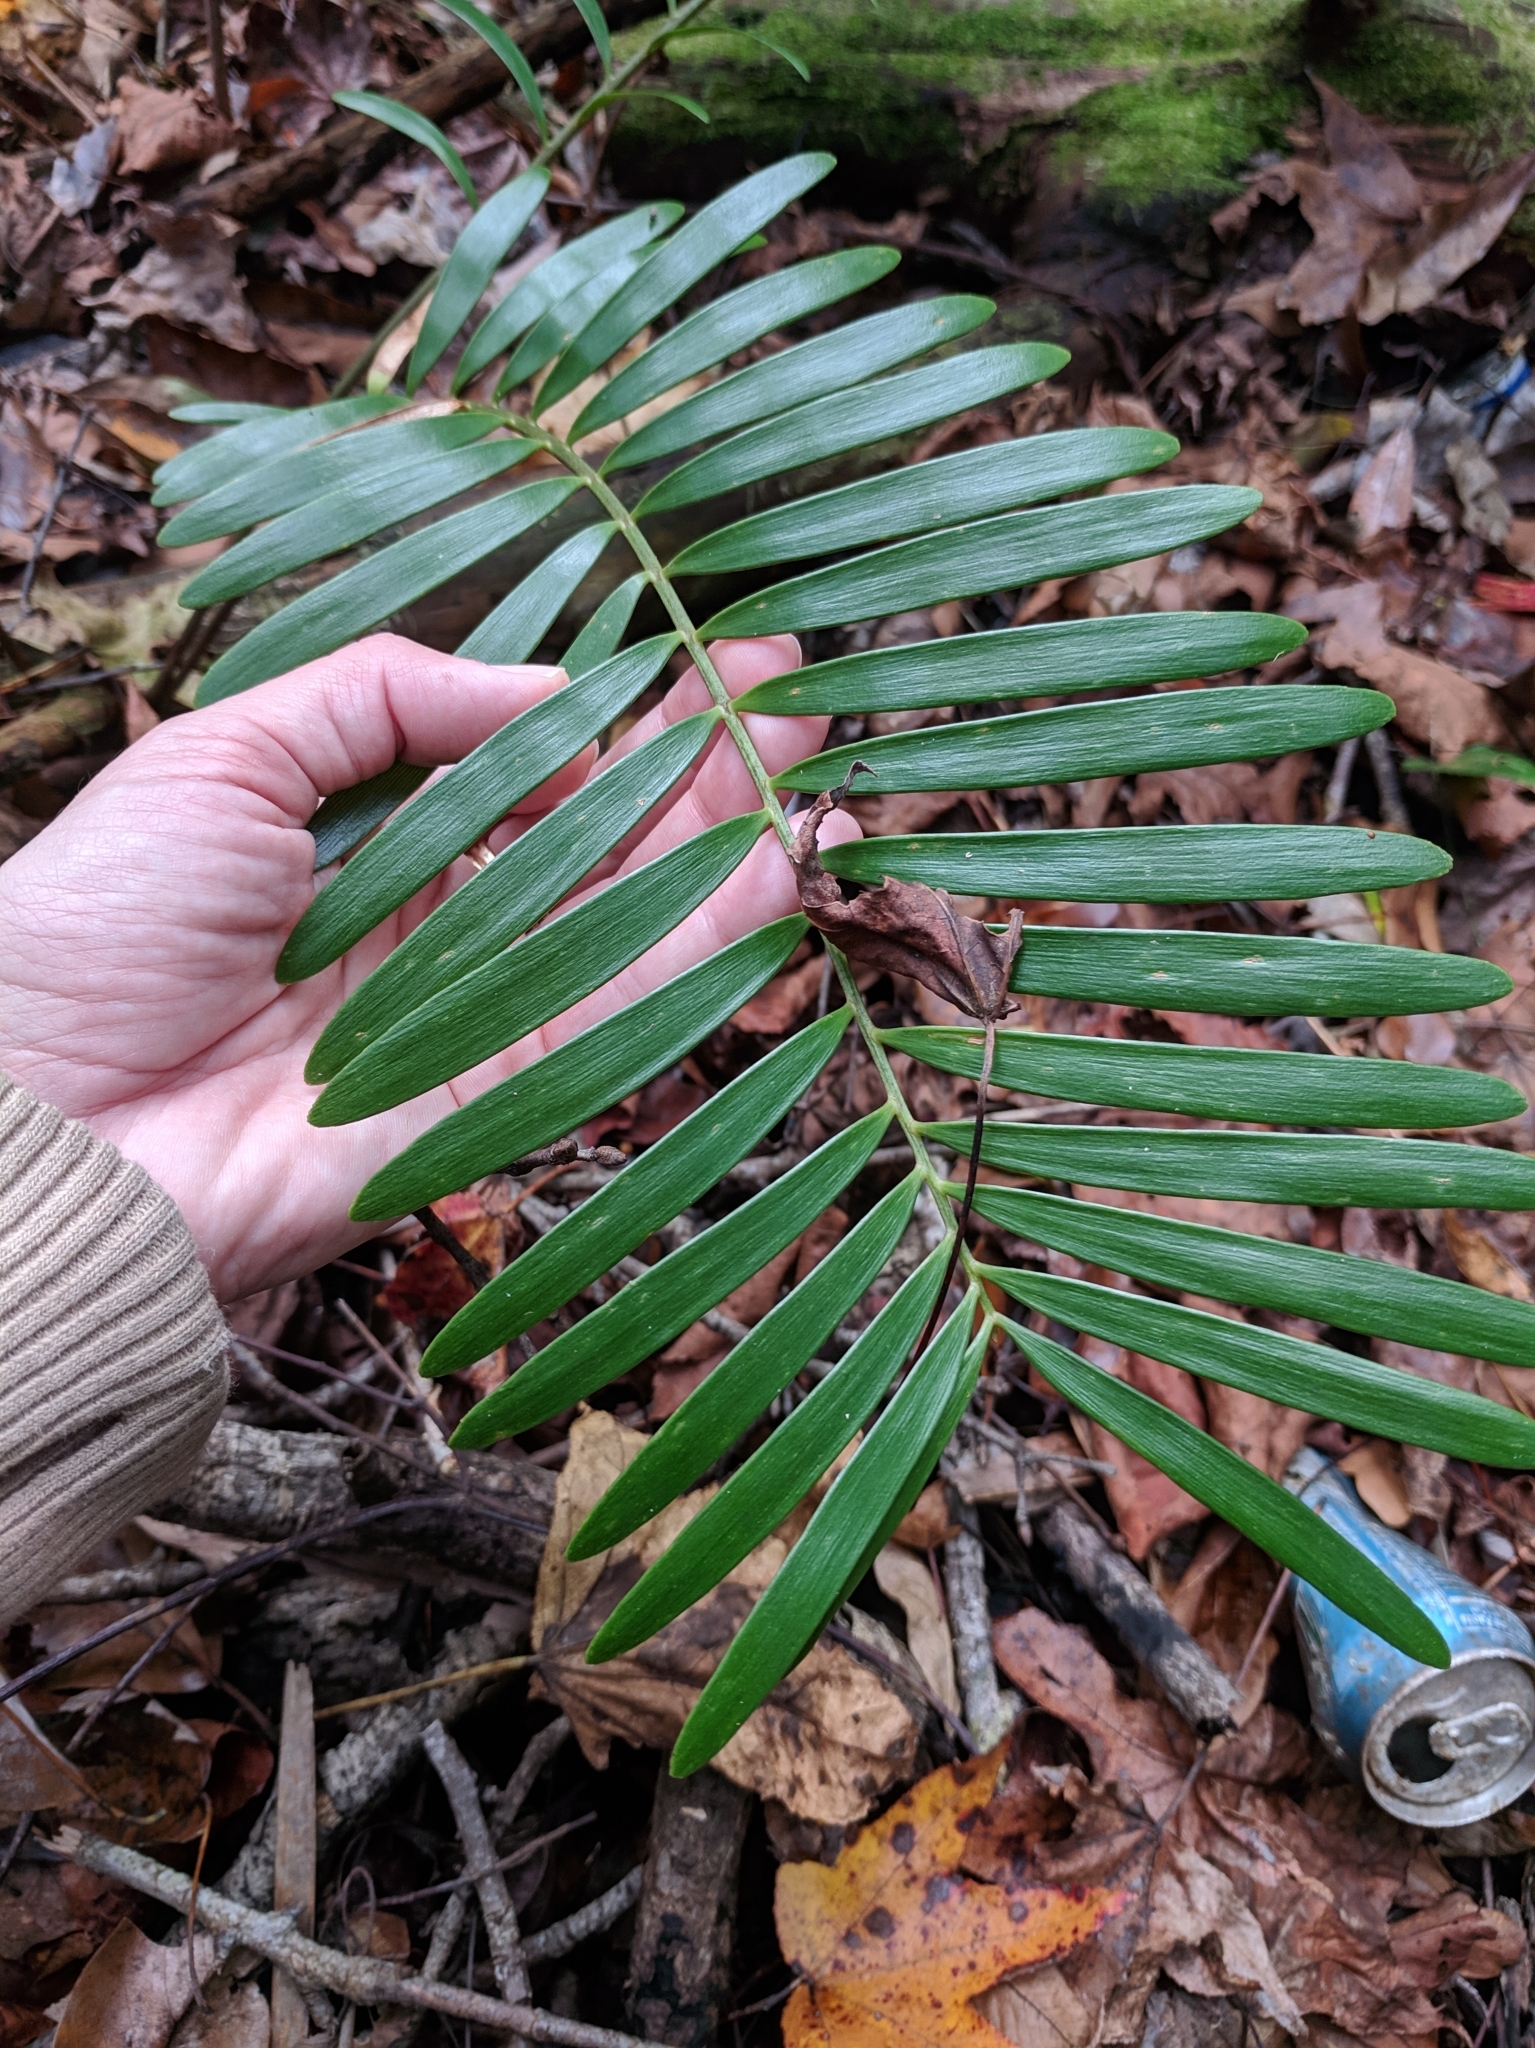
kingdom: Plantae
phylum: Tracheophyta
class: Cycadopsida
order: Cycadales
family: Zamiaceae
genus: Zamia
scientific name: Zamia integrifolia
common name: Florida arrowroot
